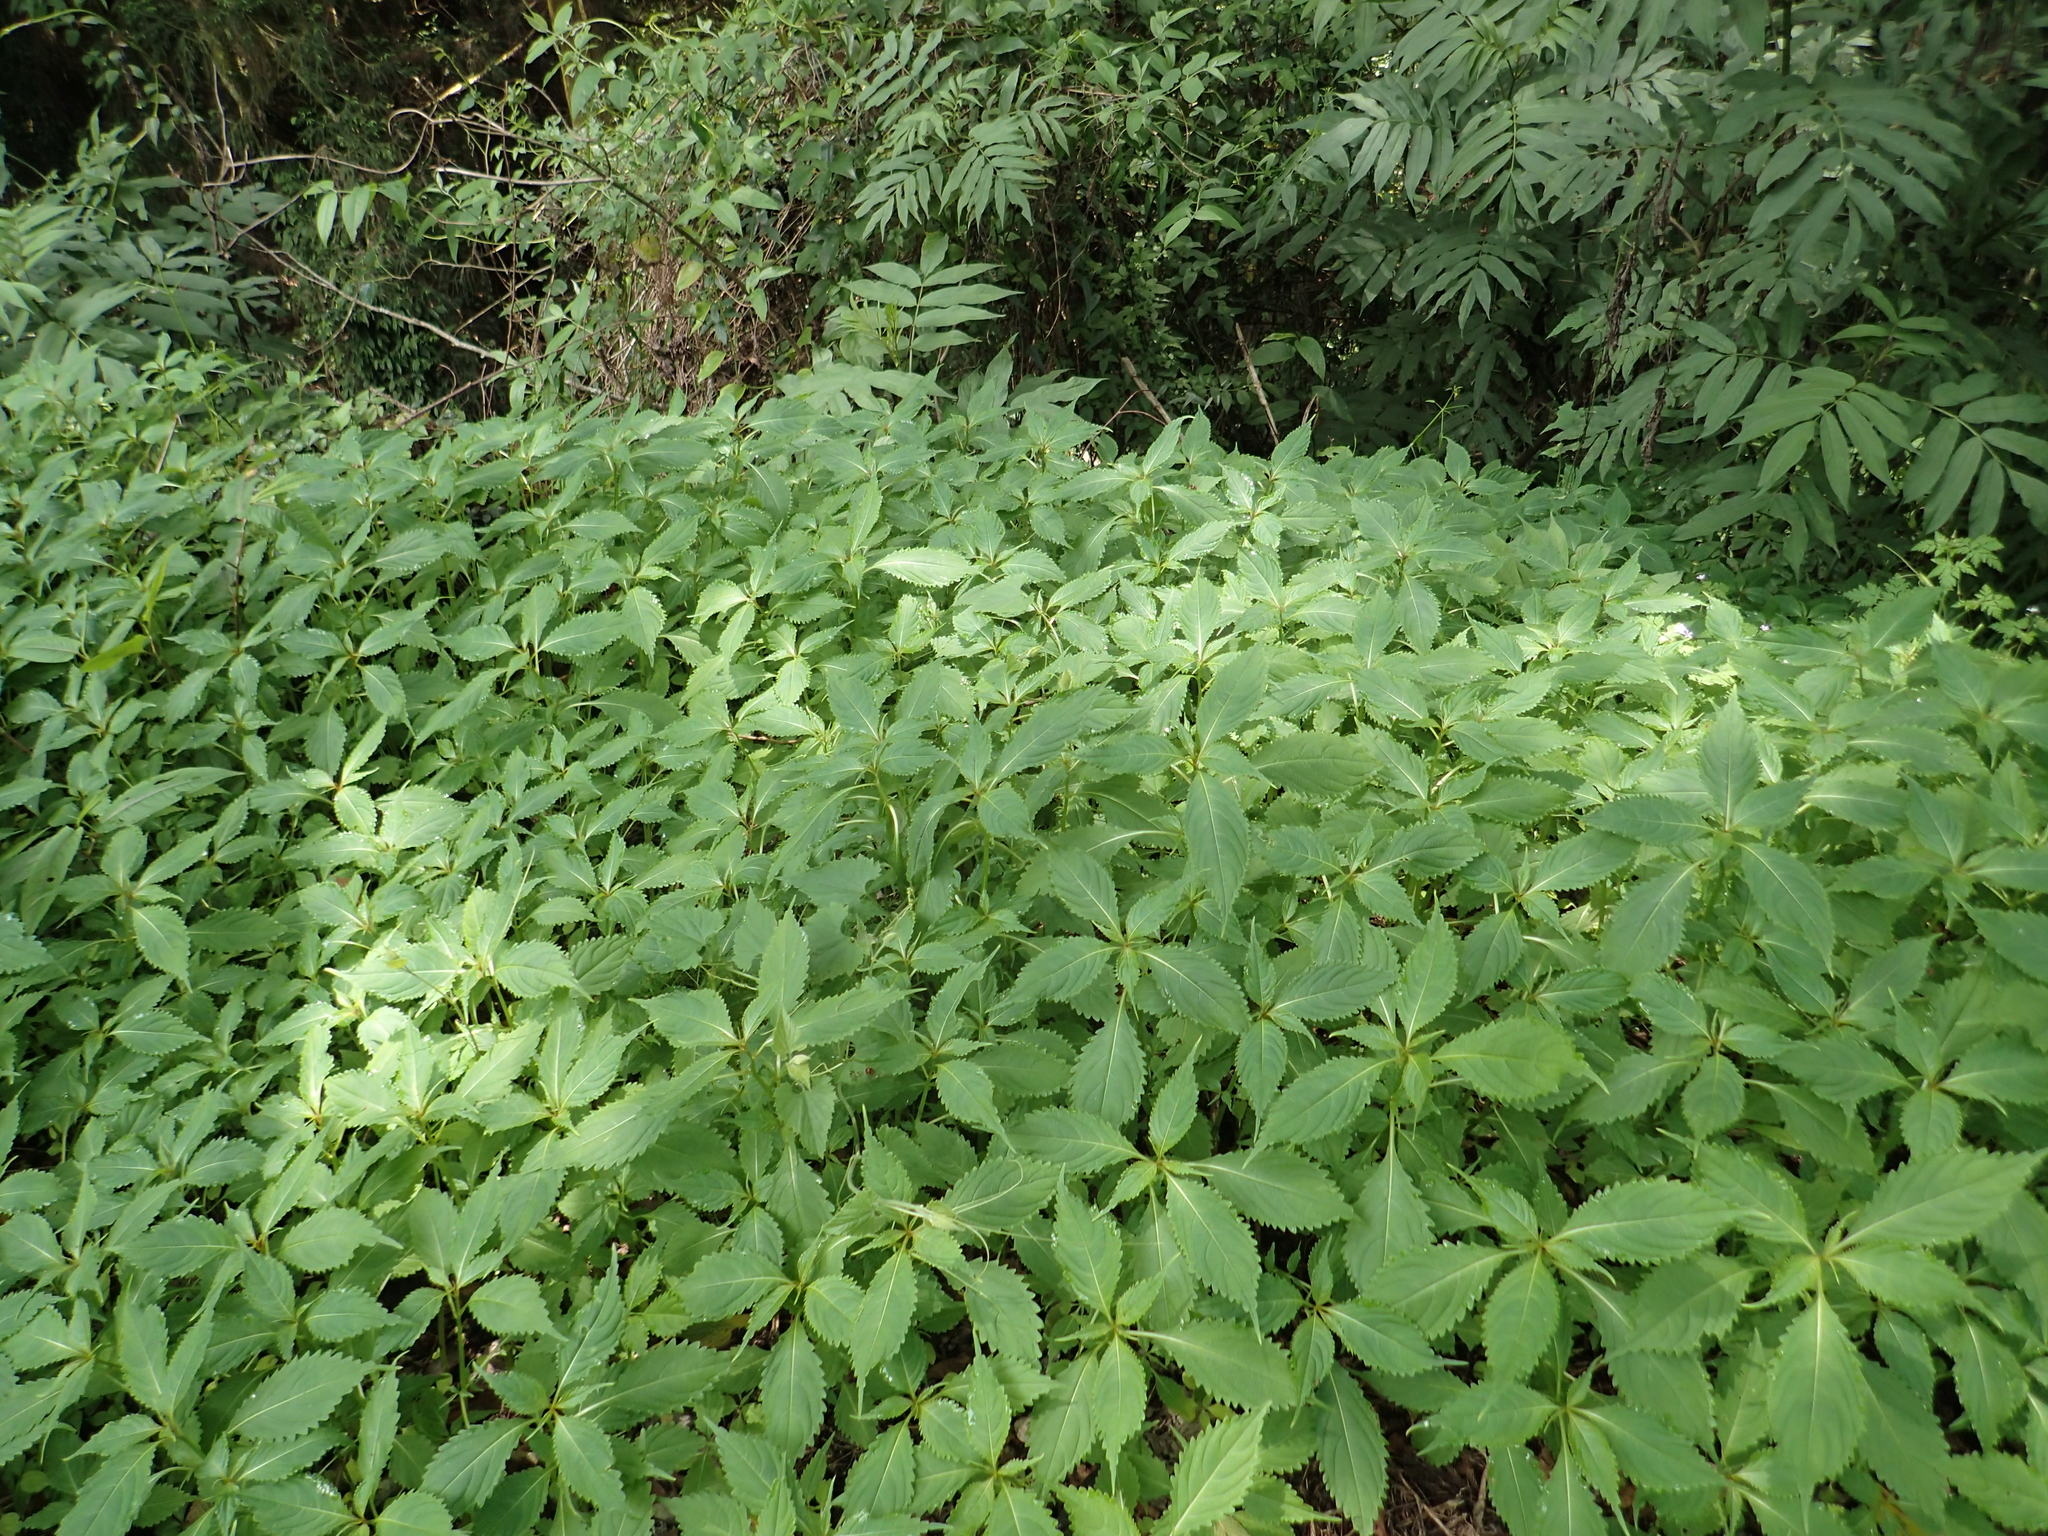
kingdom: Plantae
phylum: Tracheophyta
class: Magnoliopsida
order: Ericales
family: Balsaminaceae
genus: Impatiens
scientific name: Impatiens devolii
